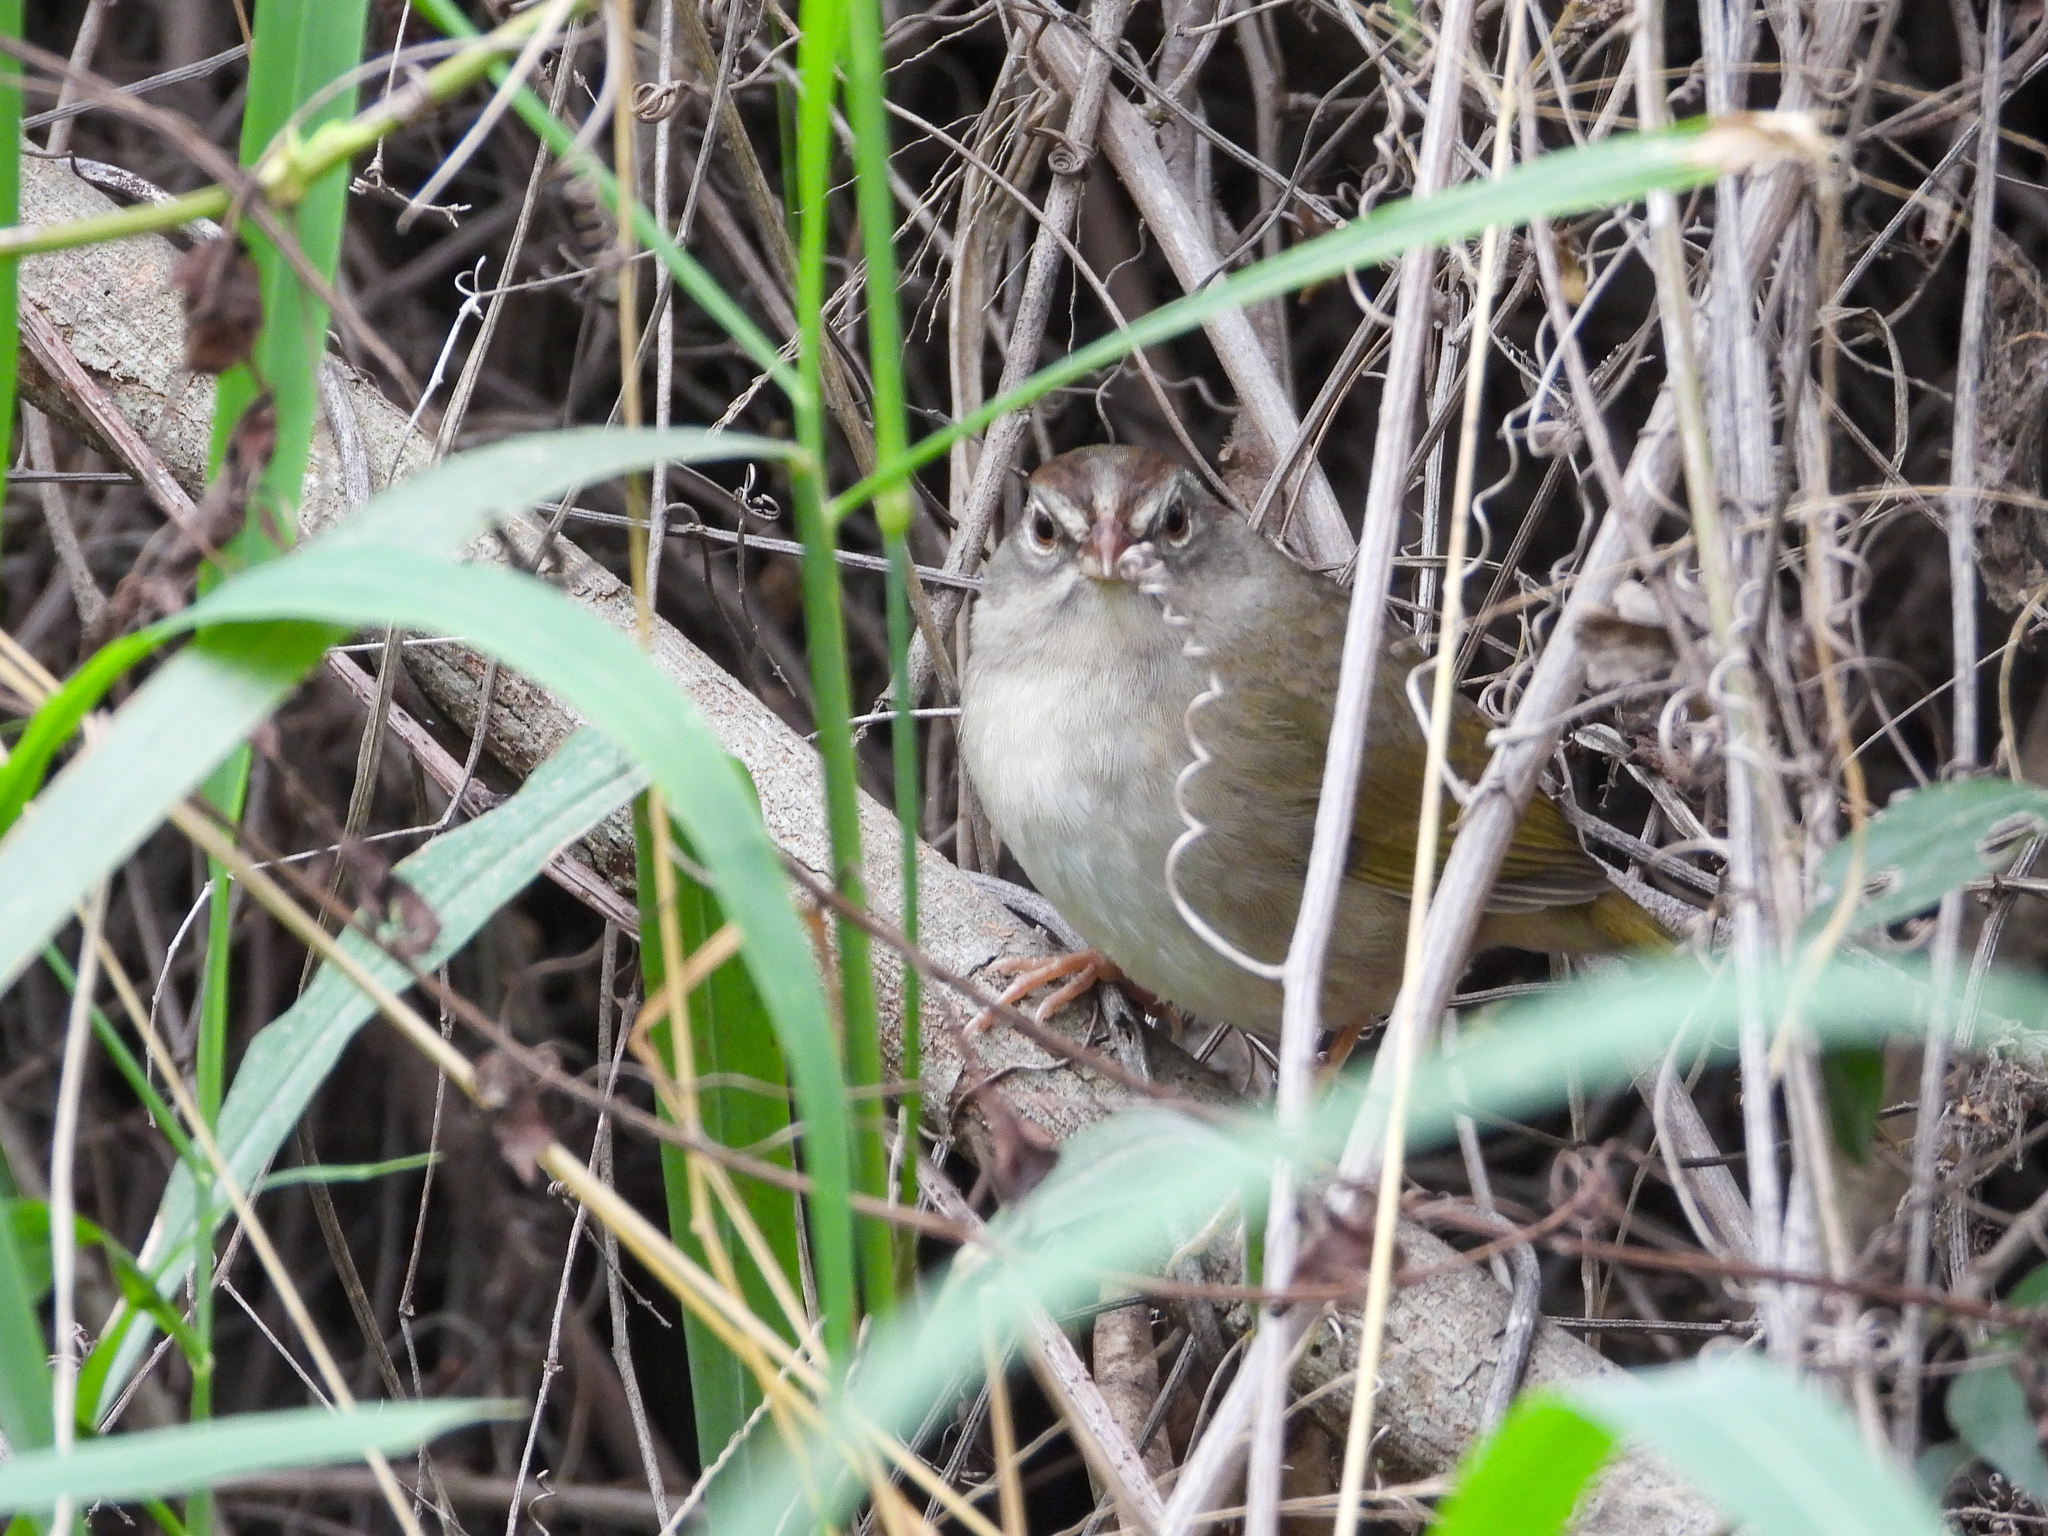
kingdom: Animalia
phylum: Chordata
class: Aves
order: Passeriformes
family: Passerellidae
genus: Arremonops
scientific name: Arremonops rufivirgatus
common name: Olive sparrow
